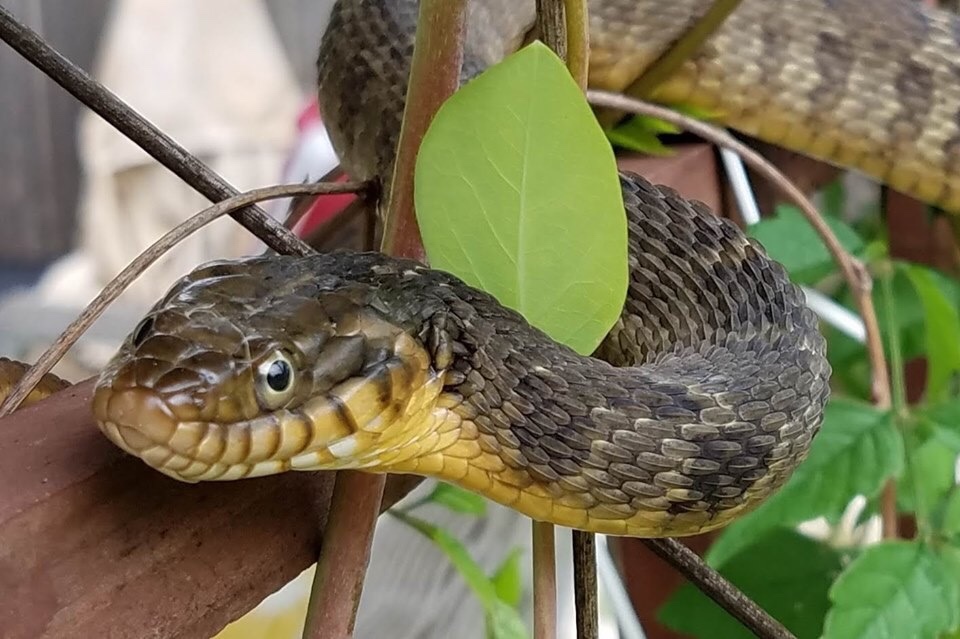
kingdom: Animalia
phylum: Chordata
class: Squamata
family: Colubridae
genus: Nerodia
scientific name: Nerodia erythrogaster
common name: Plainbelly water snake
